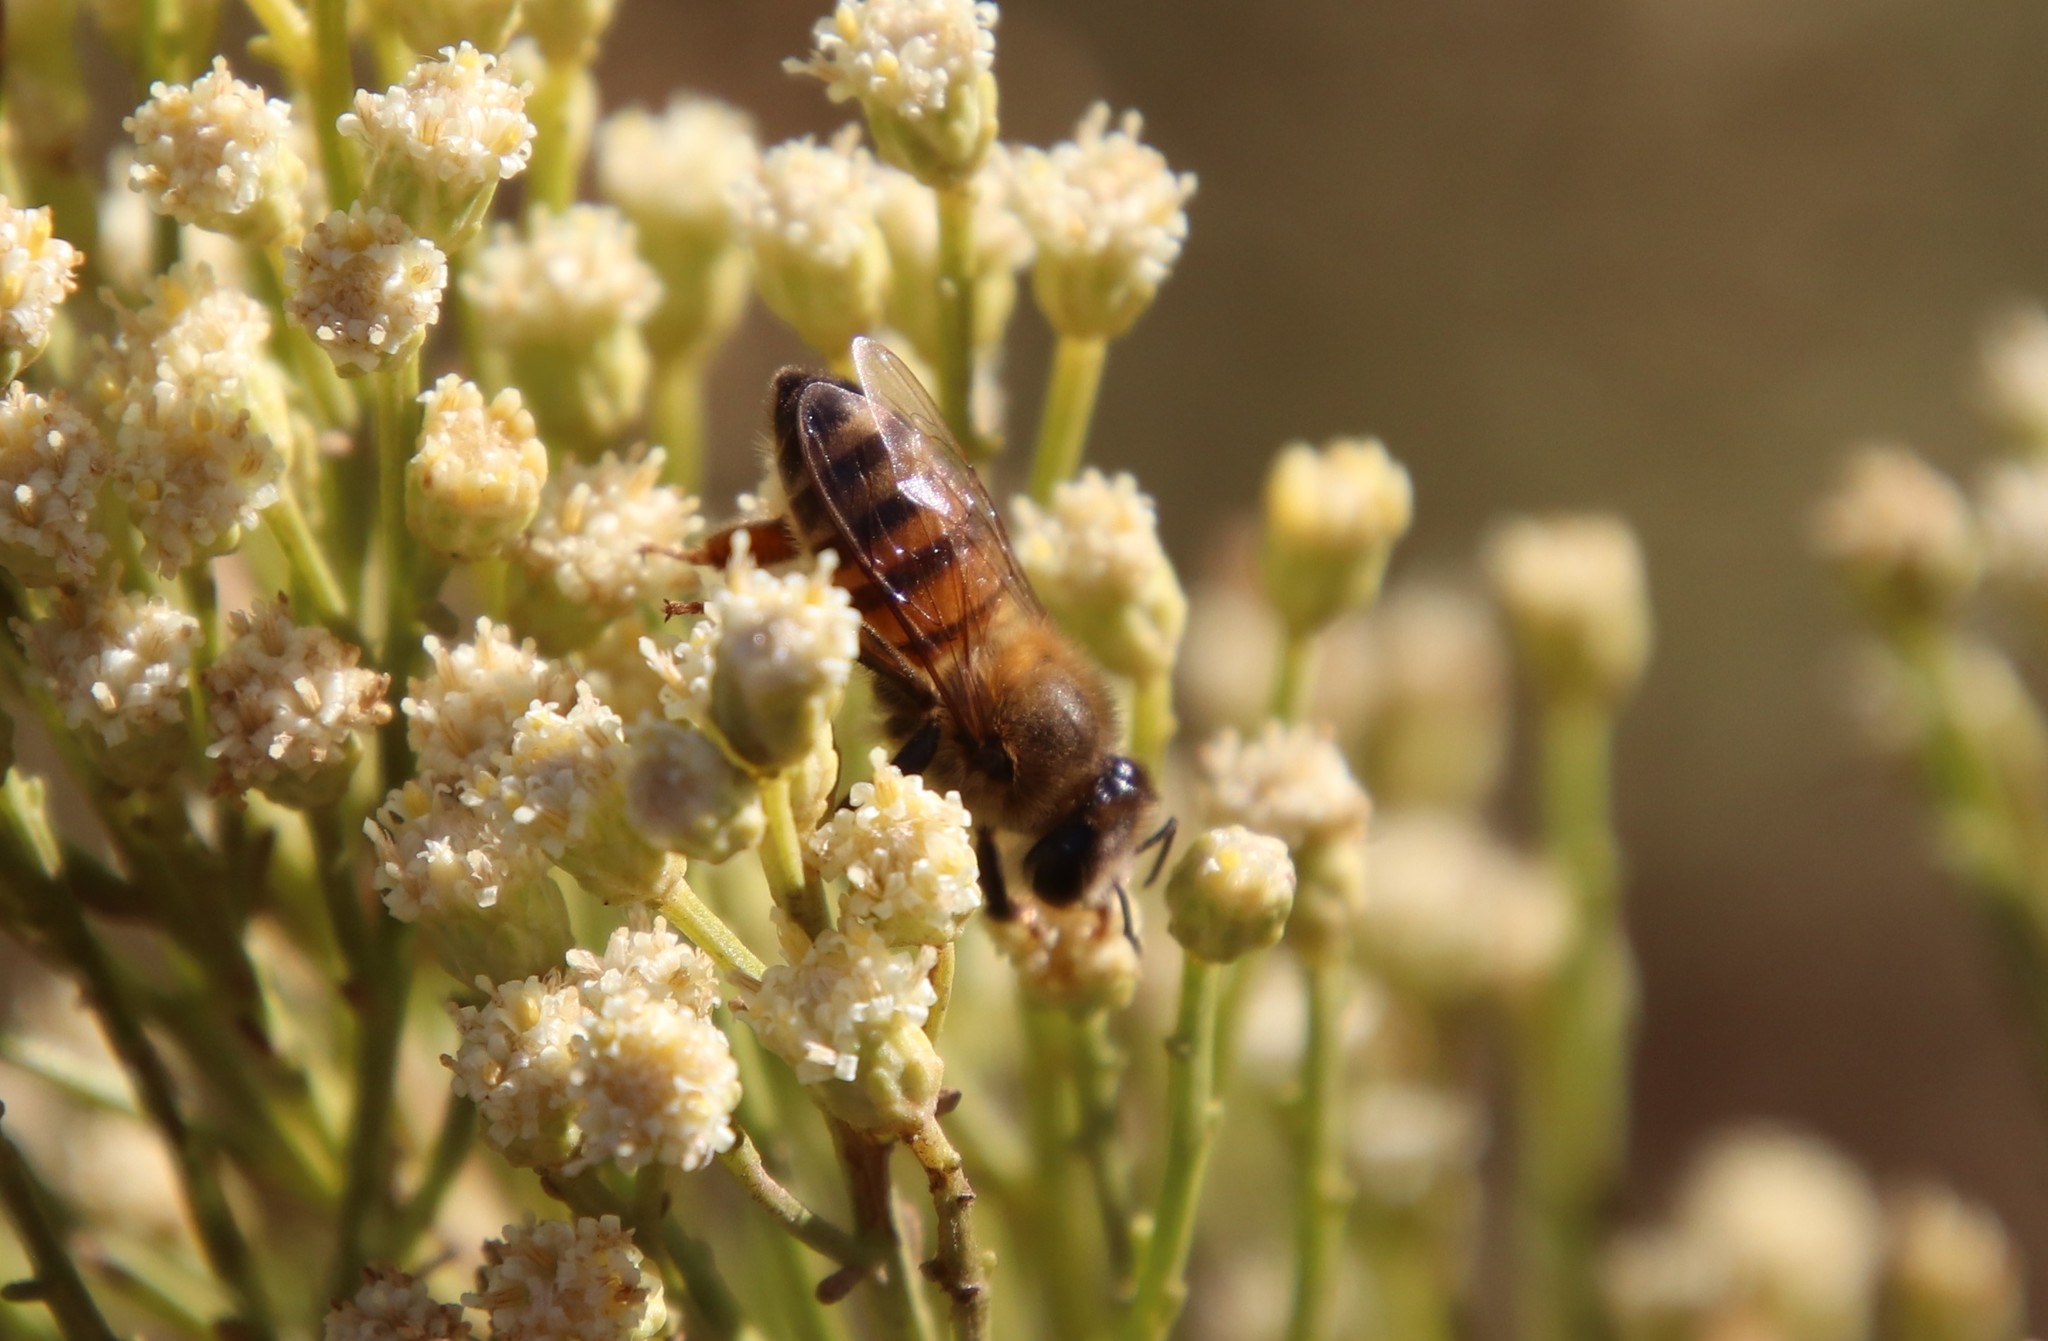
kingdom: Animalia
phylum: Arthropoda
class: Insecta
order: Hymenoptera
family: Apidae
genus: Apis
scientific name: Apis mellifera
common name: Honey bee
